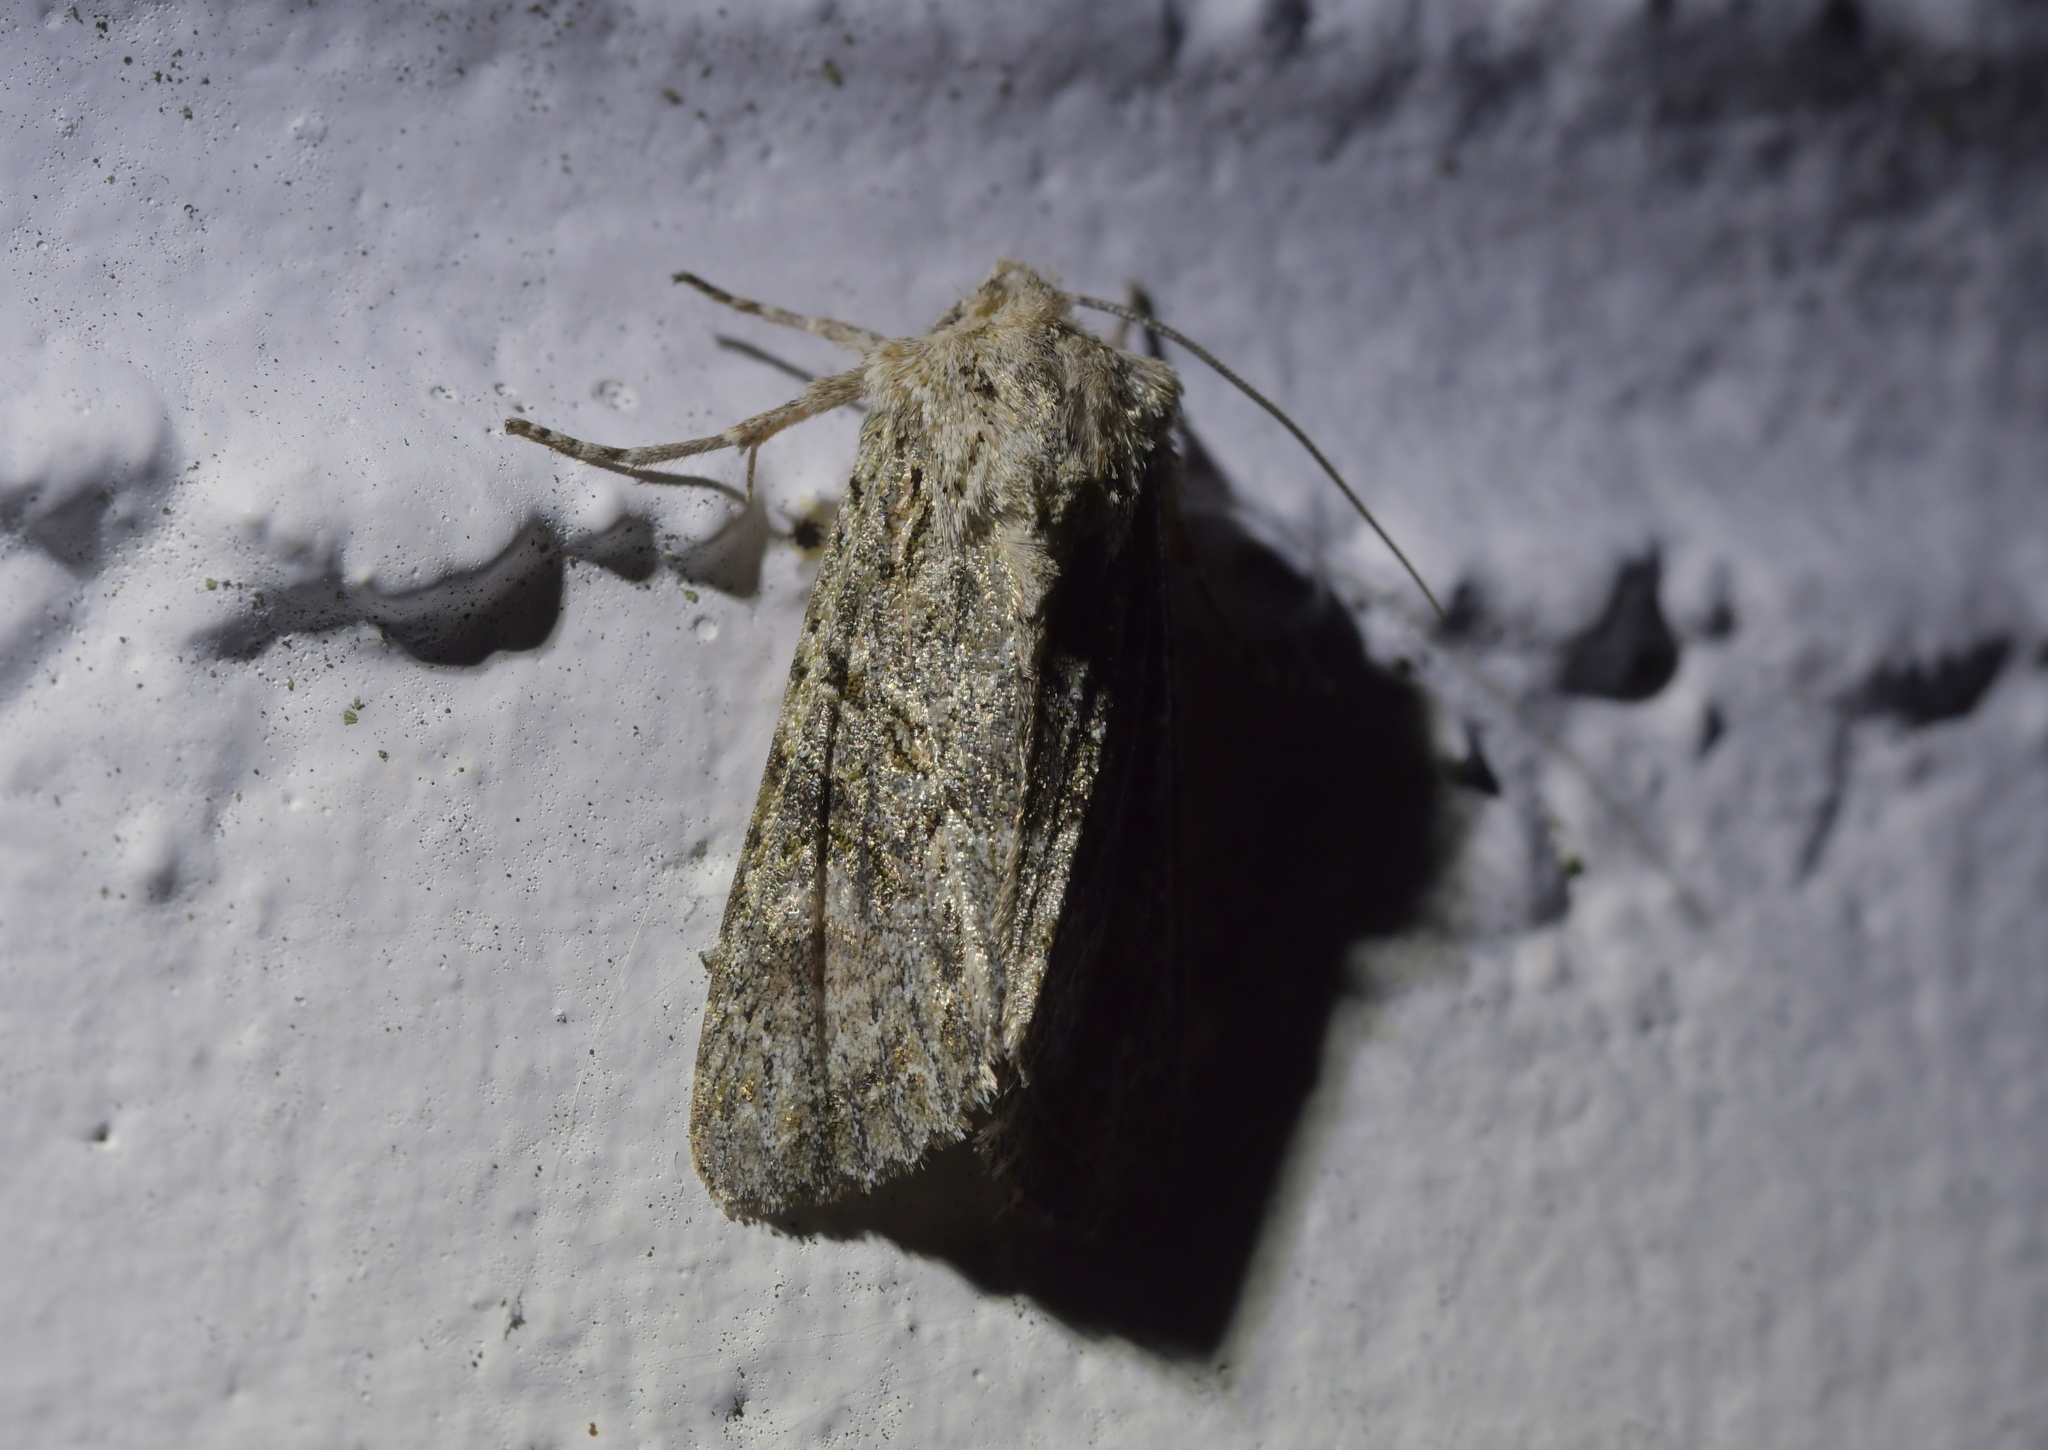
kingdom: Animalia
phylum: Arthropoda
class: Insecta
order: Lepidoptera
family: Noctuidae
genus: Ichneutica
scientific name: Ichneutica mutans
